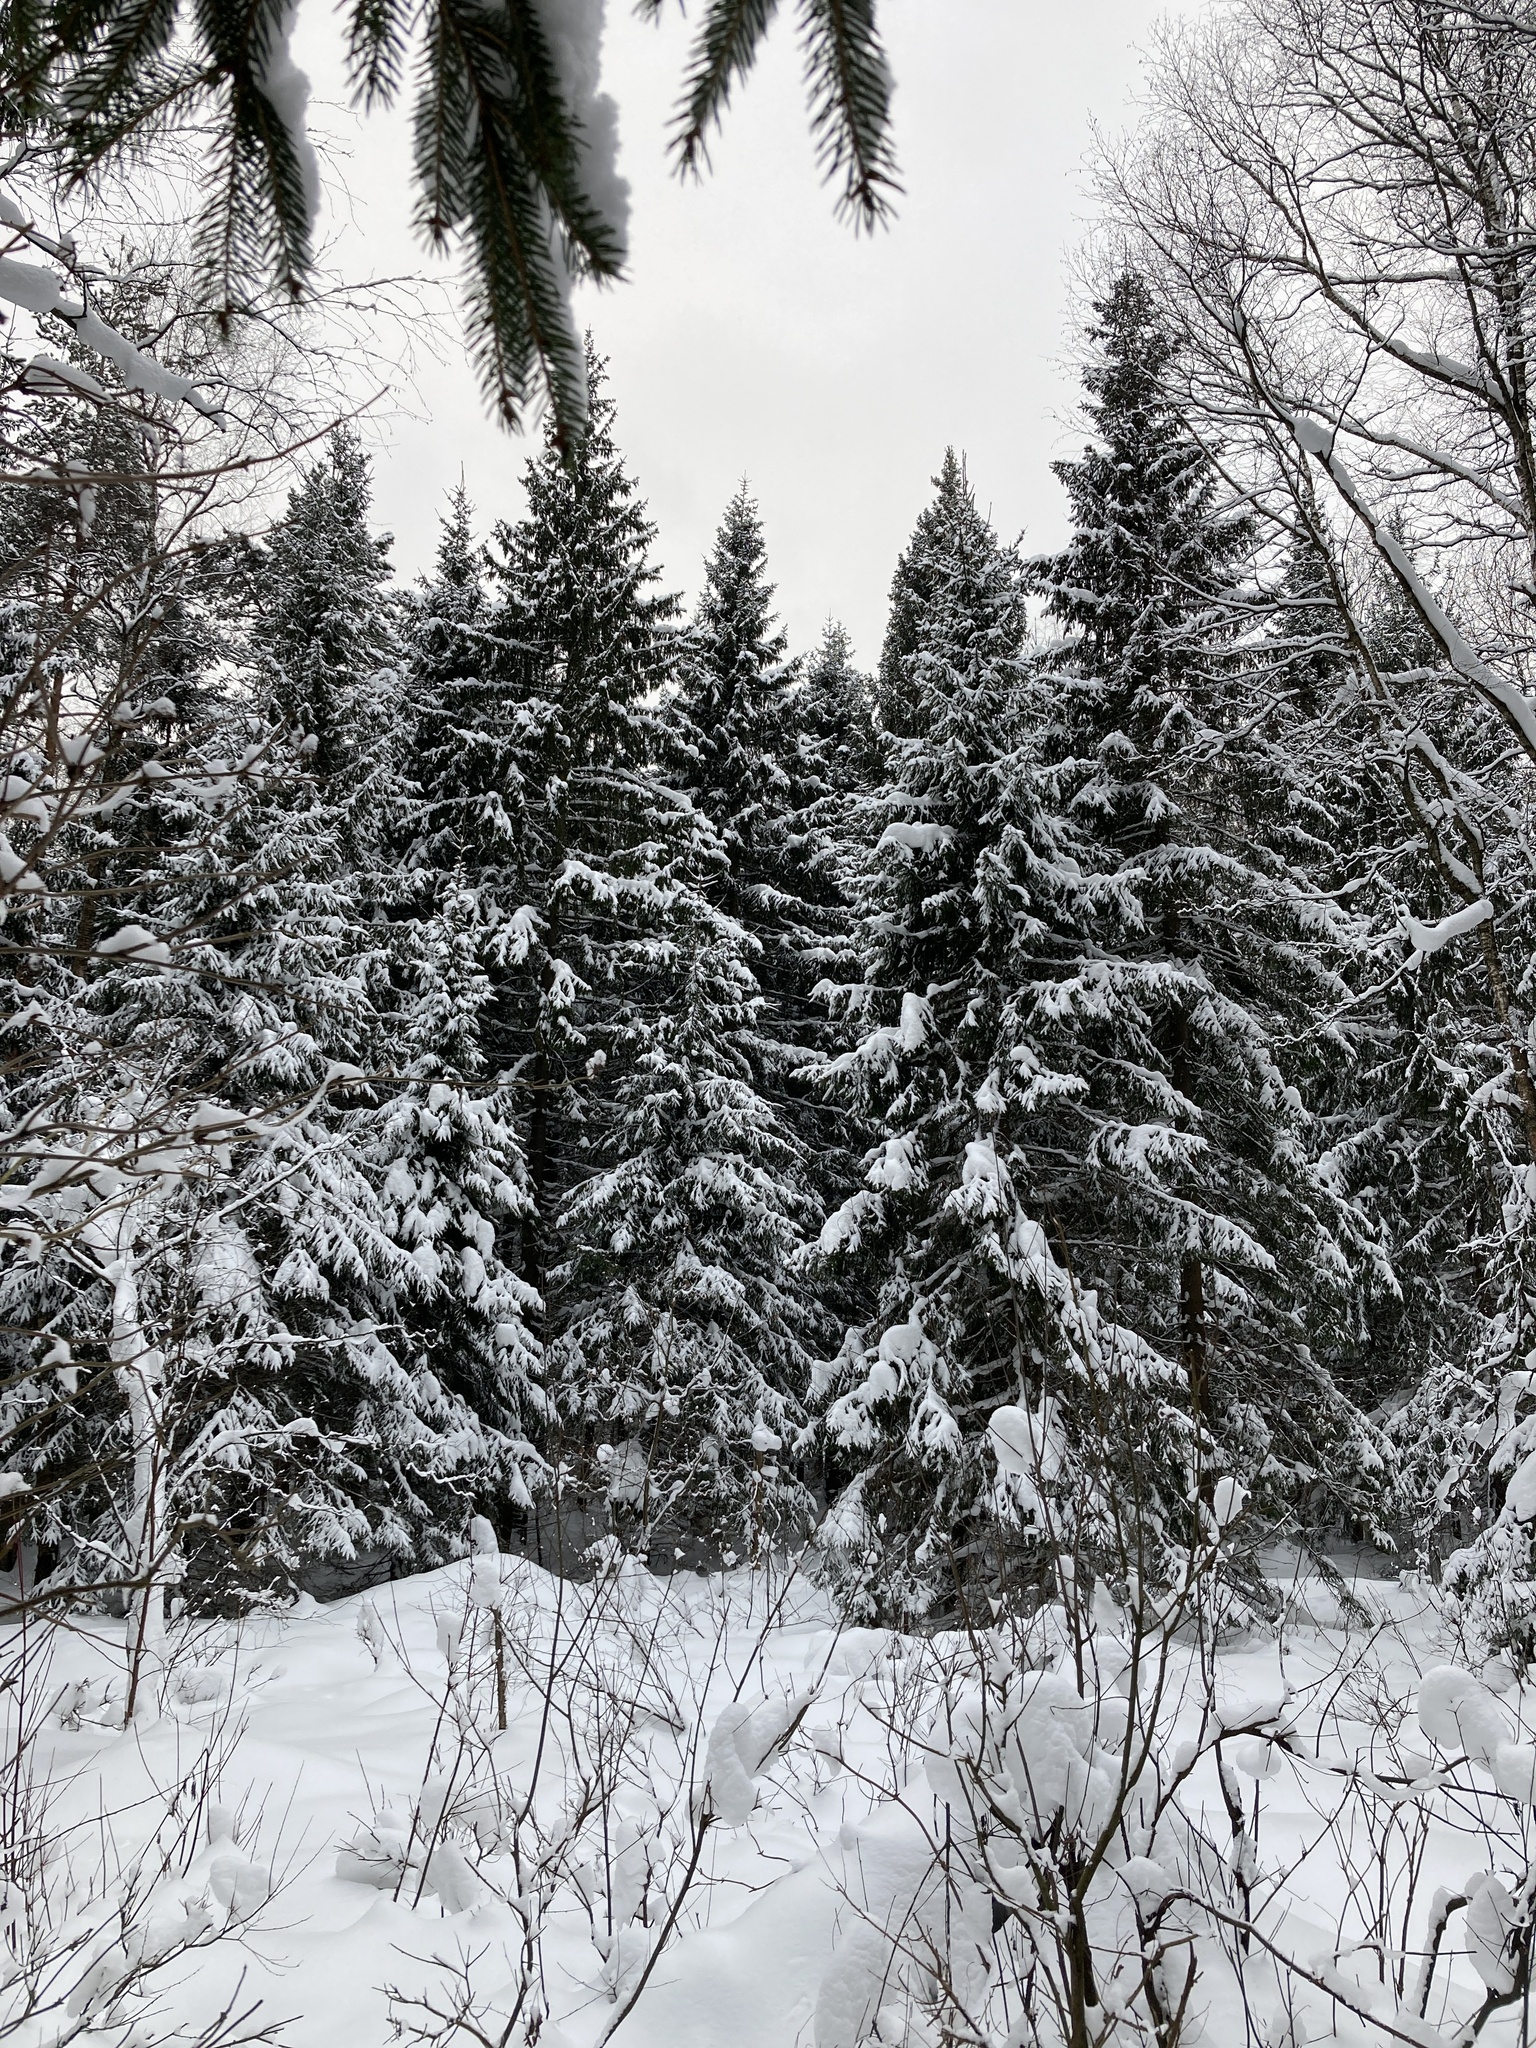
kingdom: Plantae
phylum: Tracheophyta
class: Pinopsida
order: Pinales
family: Pinaceae
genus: Picea
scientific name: Picea abies
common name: Norway spruce
